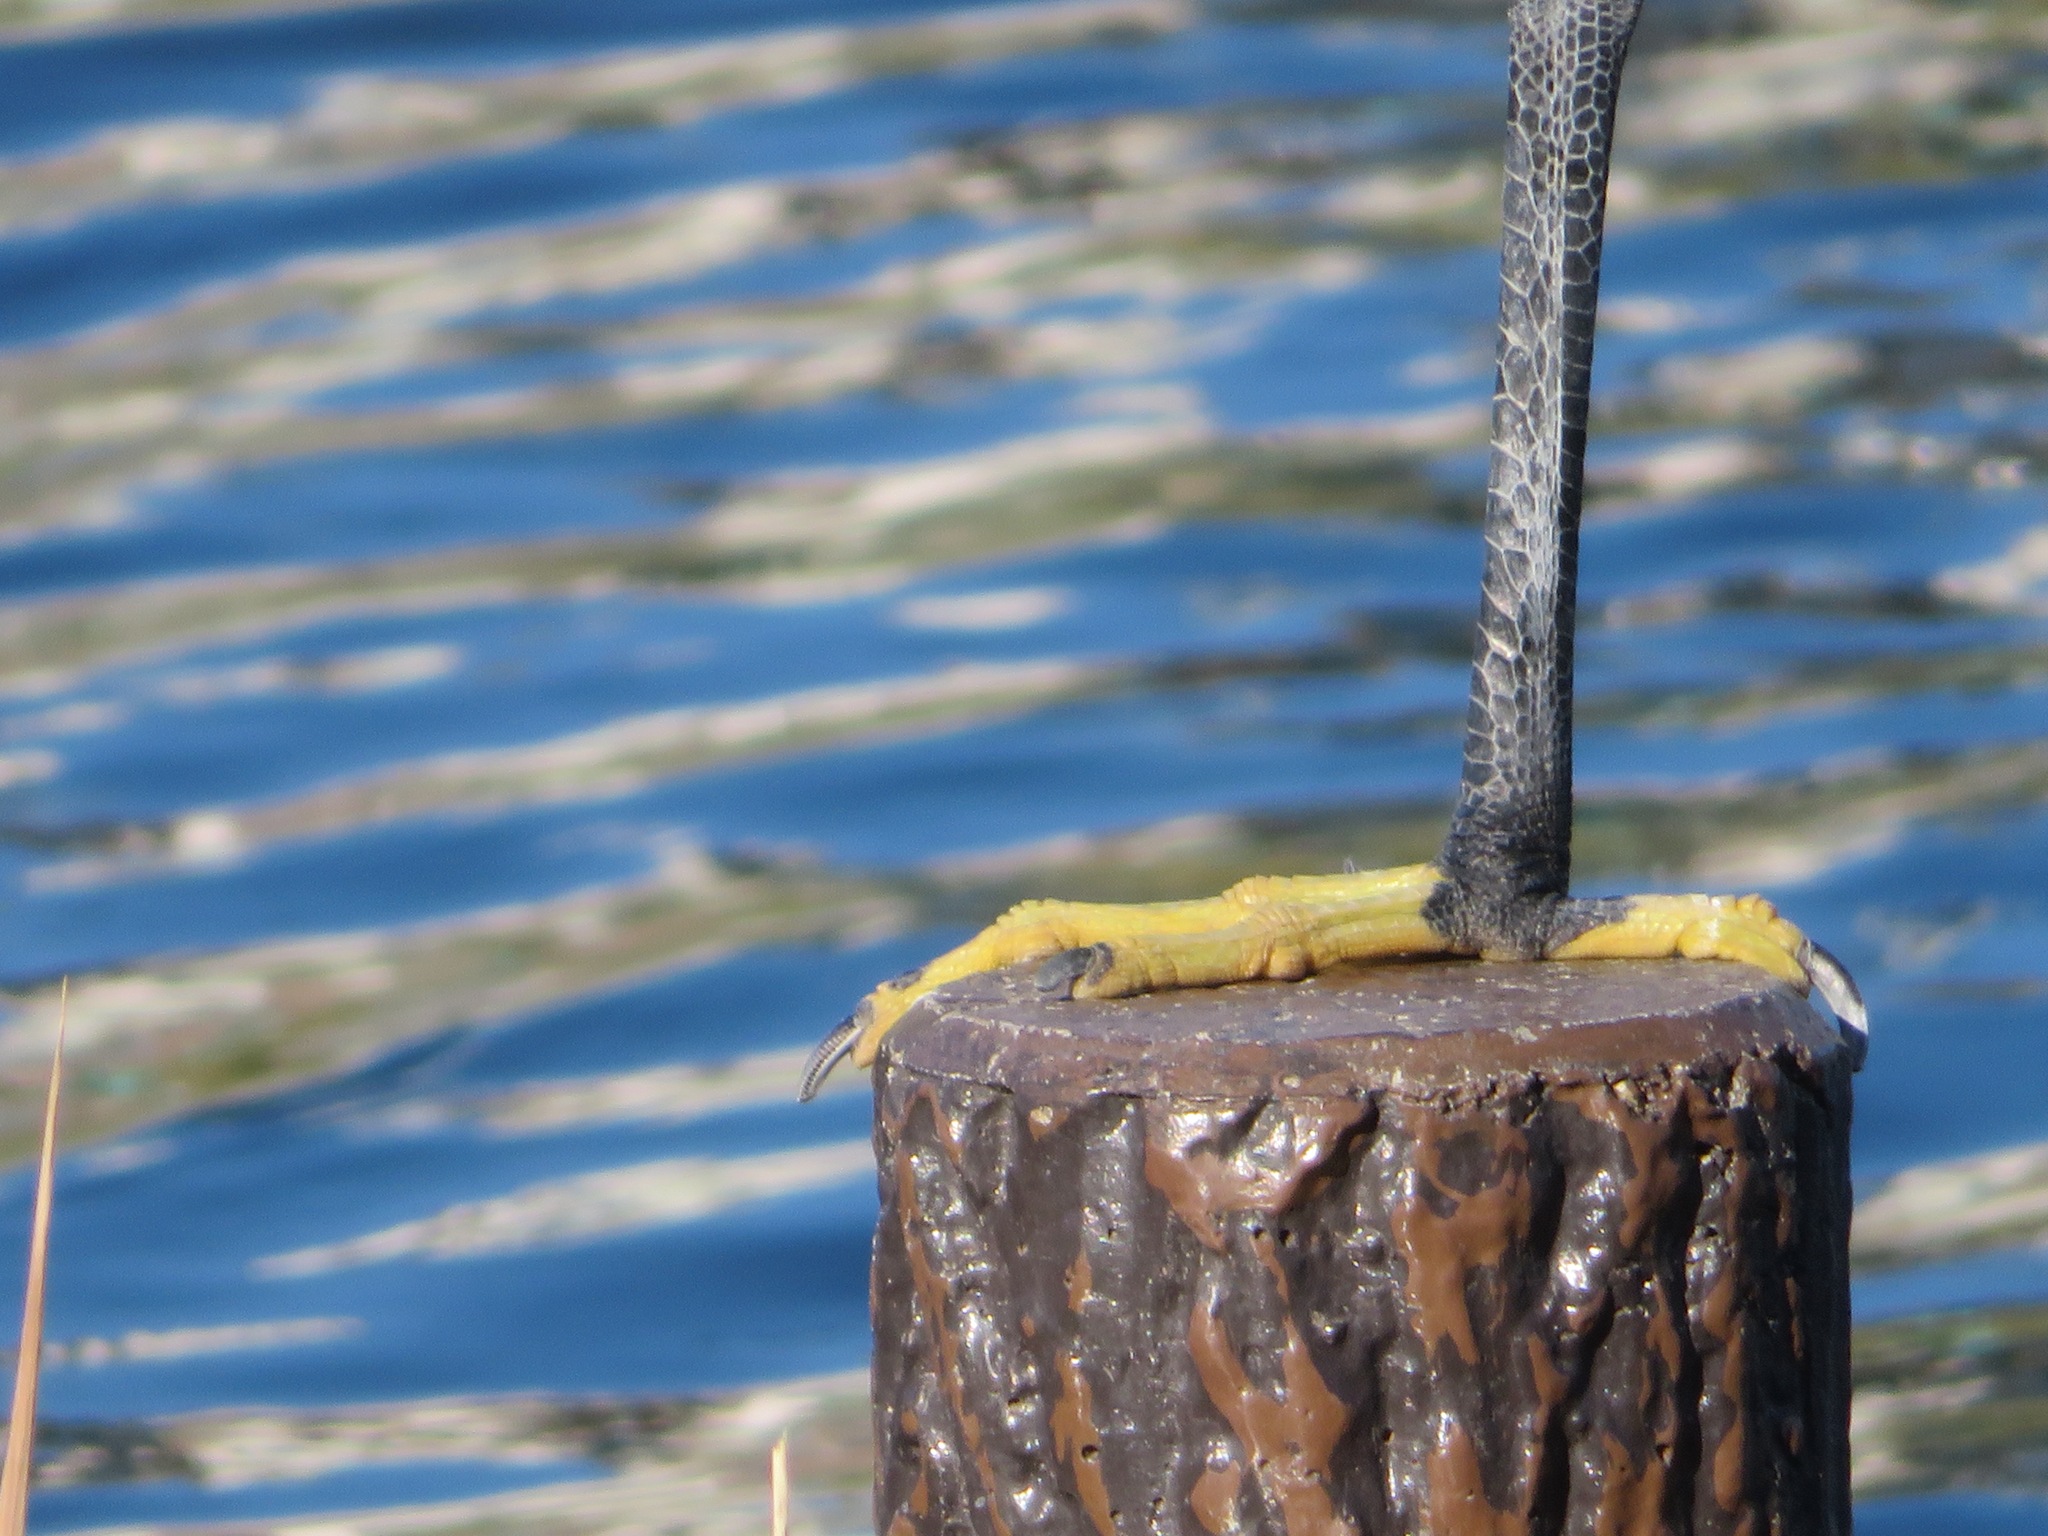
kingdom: Animalia
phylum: Chordata
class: Aves
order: Pelecaniformes
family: Ardeidae
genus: Egretta
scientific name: Egretta garzetta
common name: Little egret
